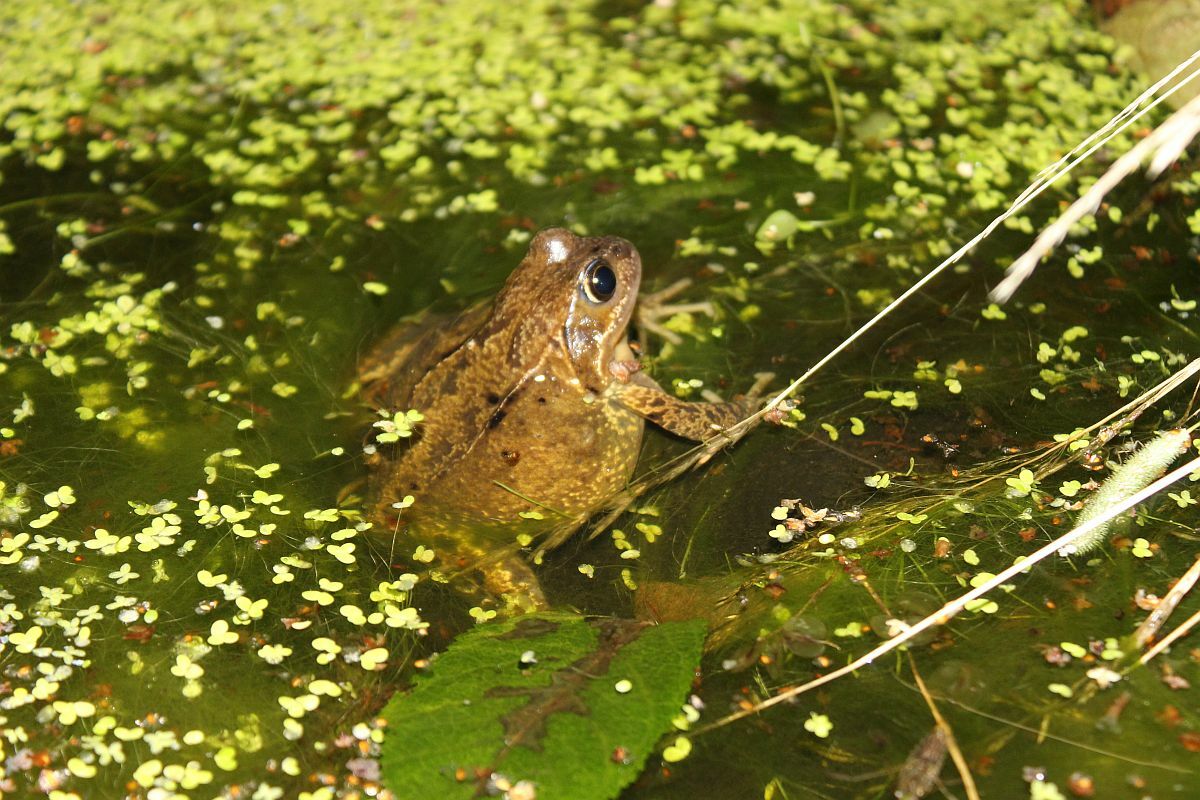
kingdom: Animalia
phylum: Chordata
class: Amphibia
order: Anura
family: Ranidae
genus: Rana
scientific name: Rana temporaria
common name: Common frog
